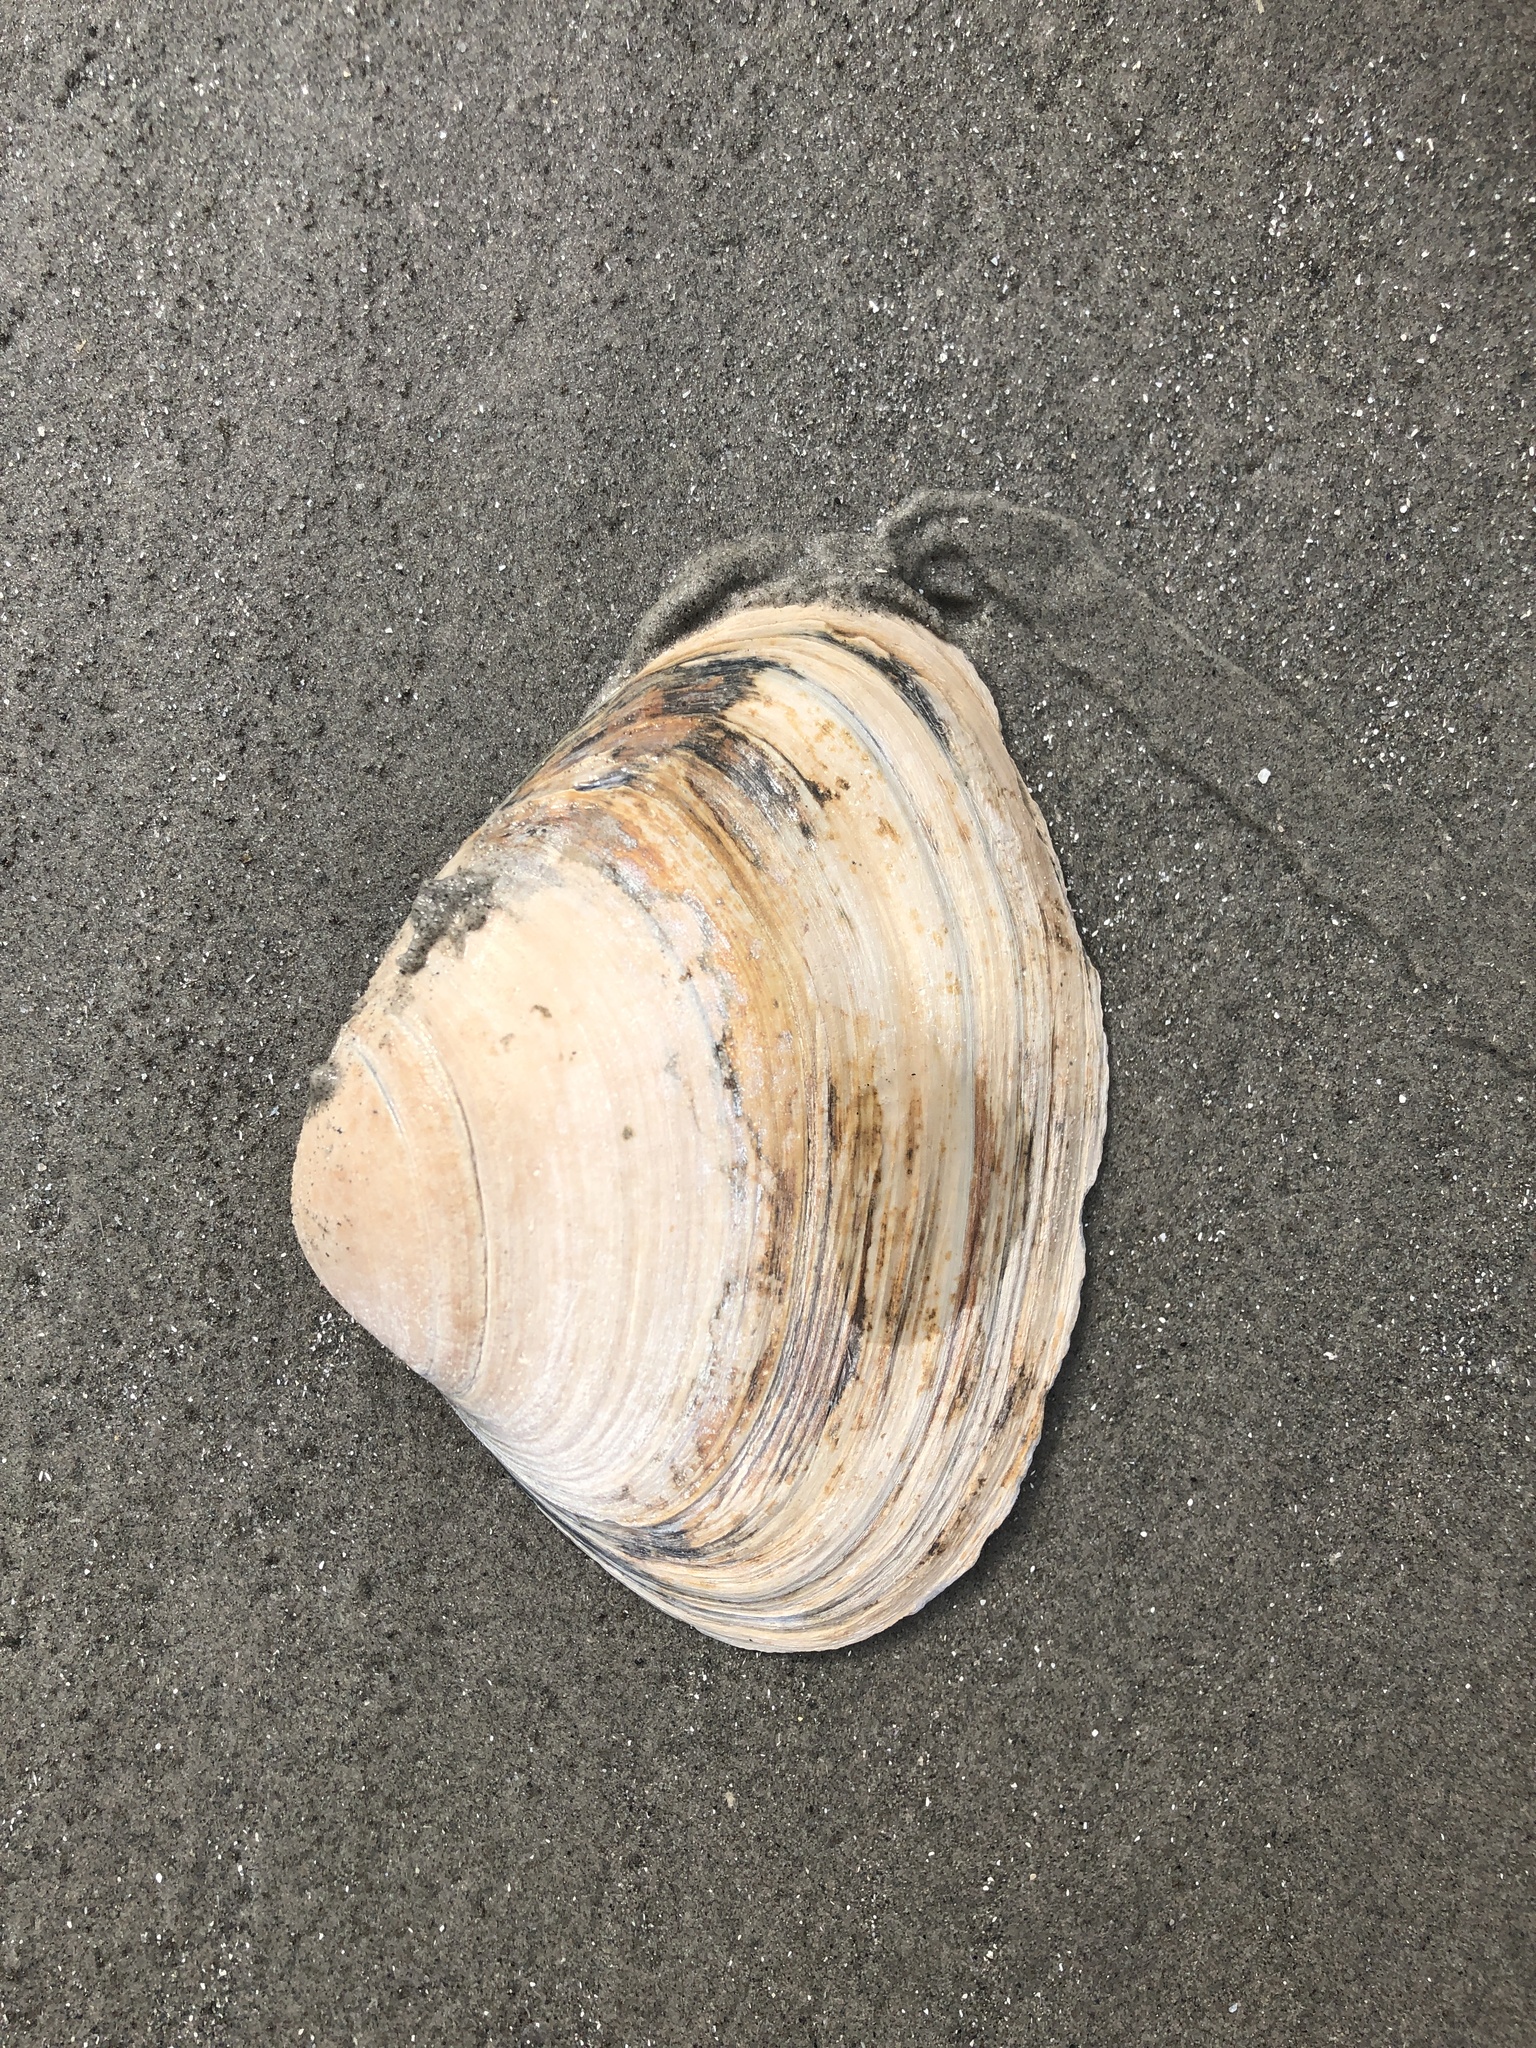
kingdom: Animalia
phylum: Mollusca
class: Bivalvia
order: Venerida
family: Mactridae
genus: Spisula
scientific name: Spisula solidissima
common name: Atlantic surf clam
